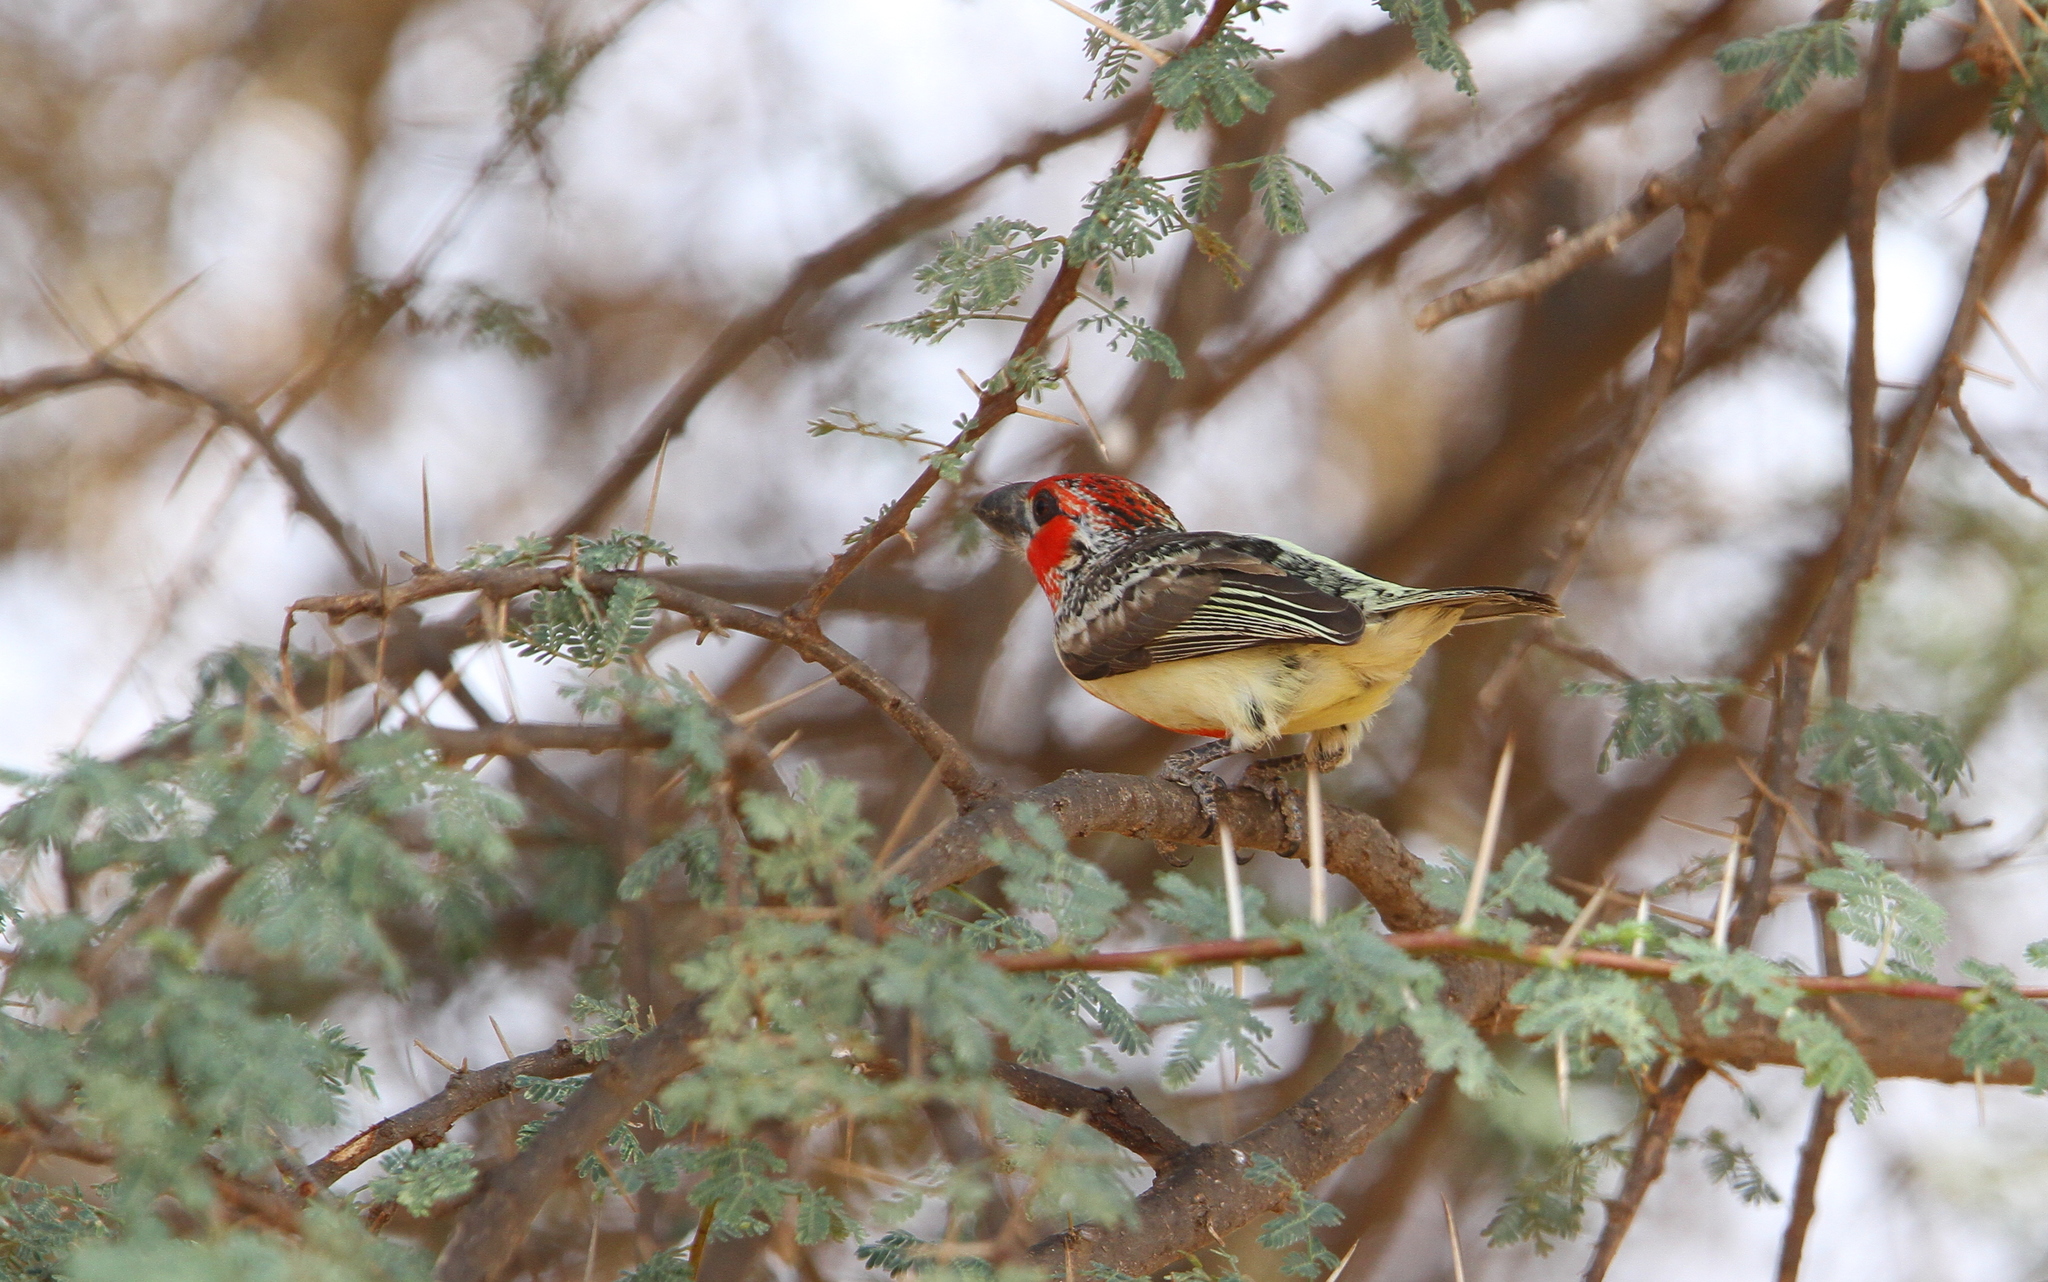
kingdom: Animalia
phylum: Chordata
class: Aves
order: Piciformes
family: Lybiidae
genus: Lybius
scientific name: Lybius vieilloti
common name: Vieillot's barbet
